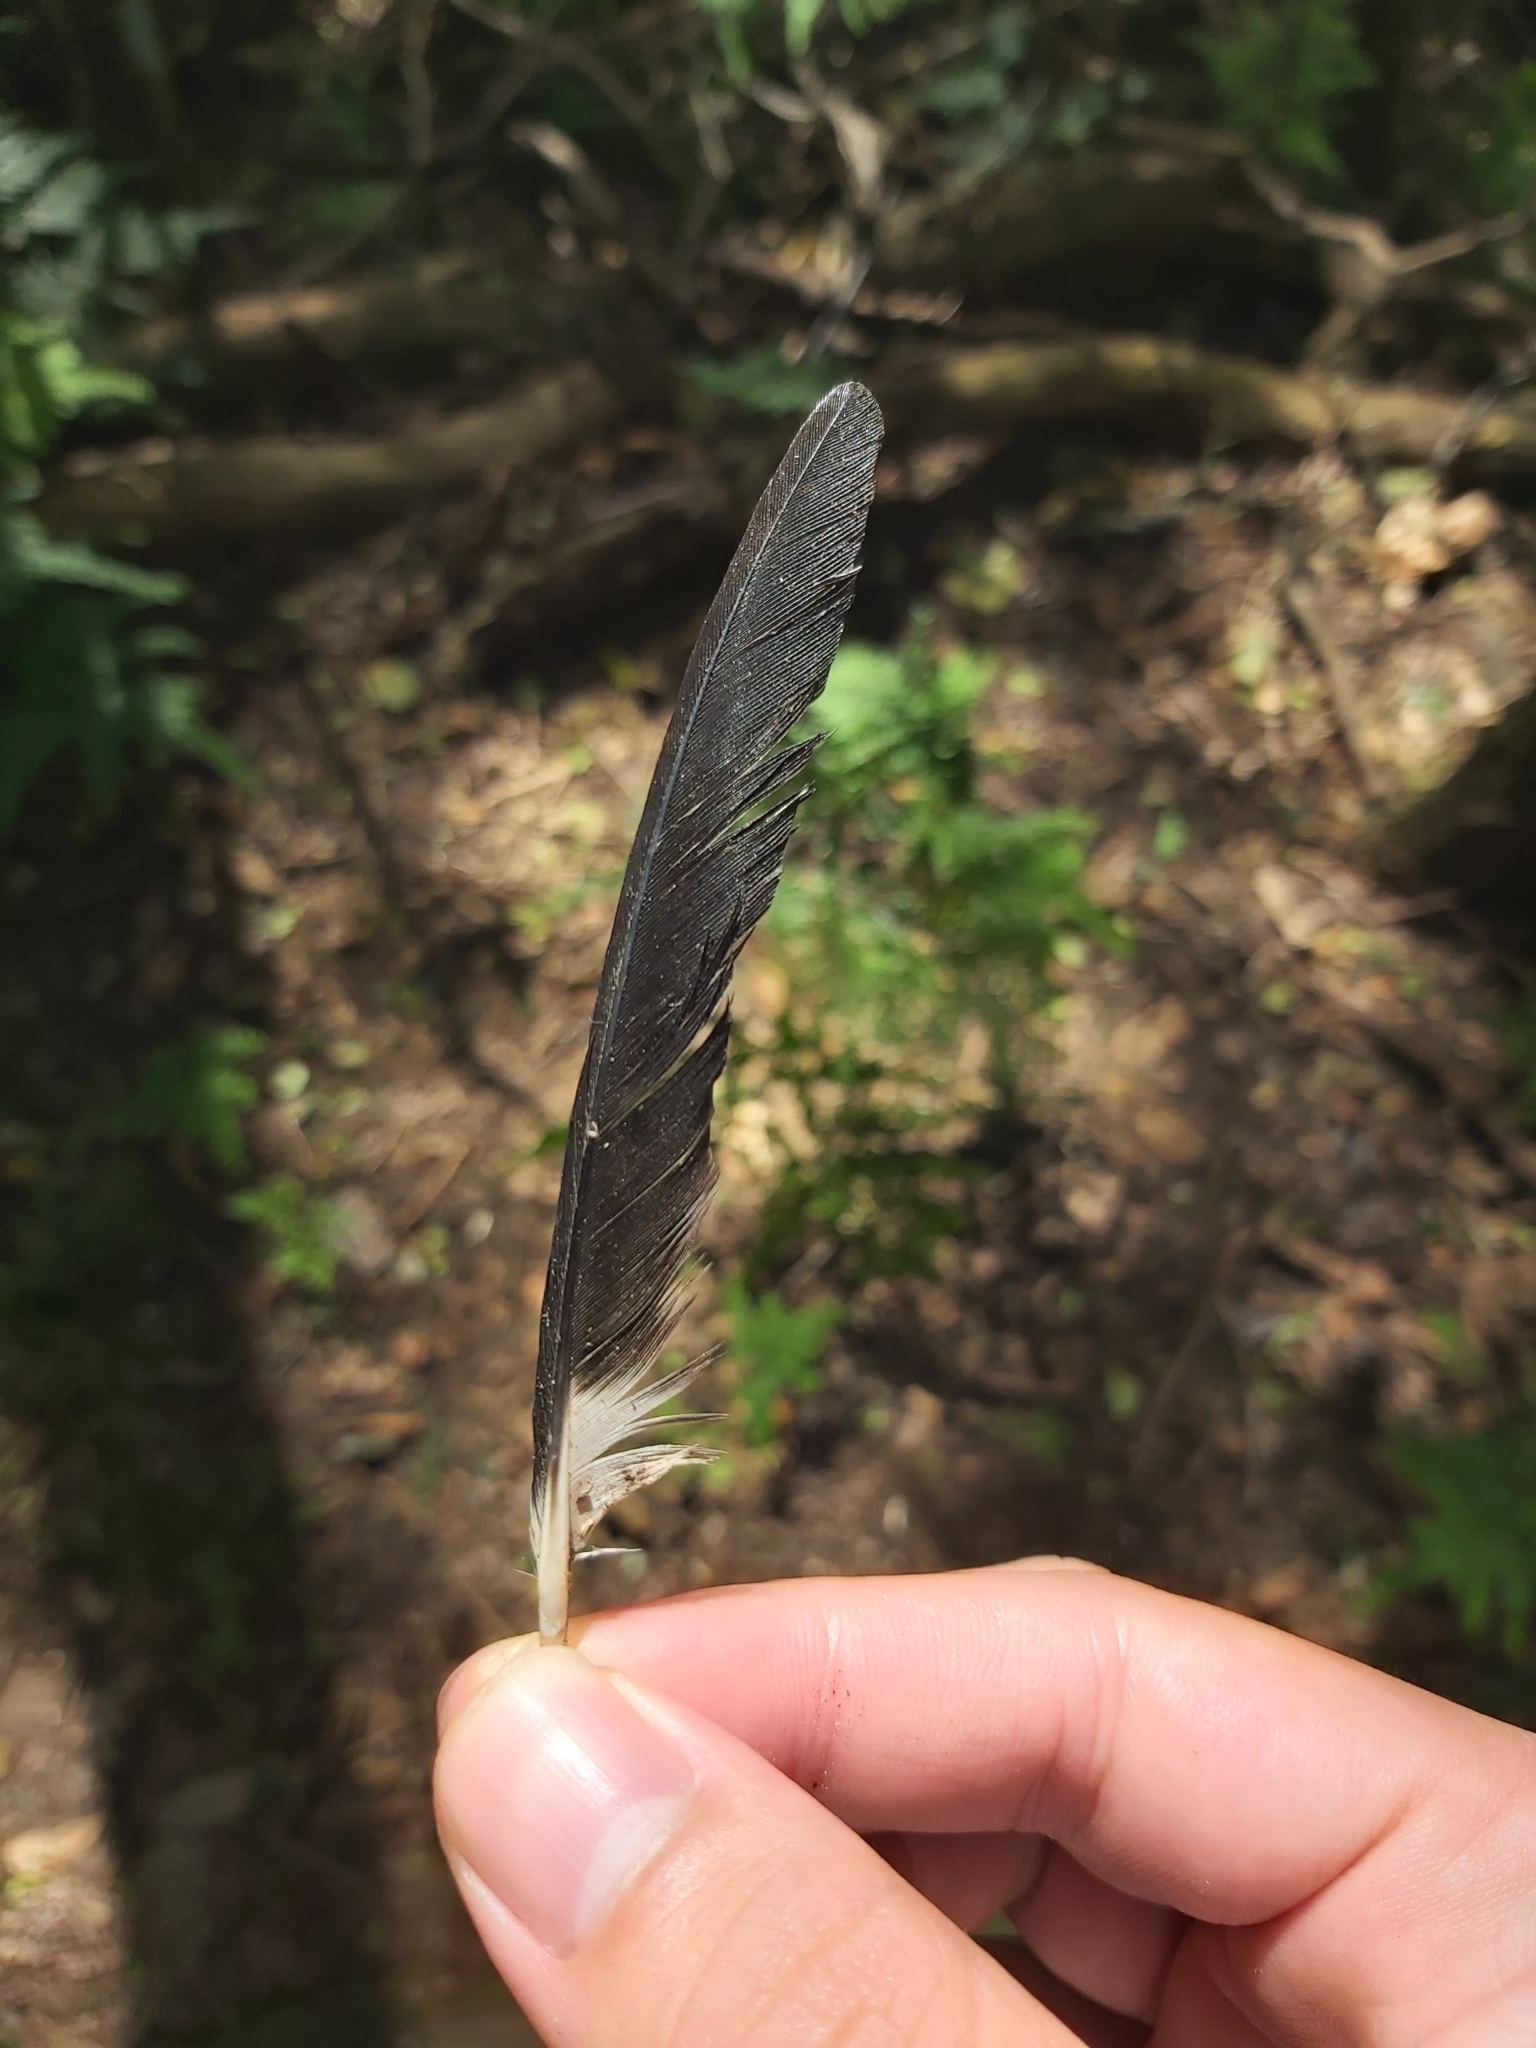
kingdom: Animalia
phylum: Chordata
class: Aves
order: Passeriformes
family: Cracticidae
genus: Strepera
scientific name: Strepera graculina
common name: Pied currawong
